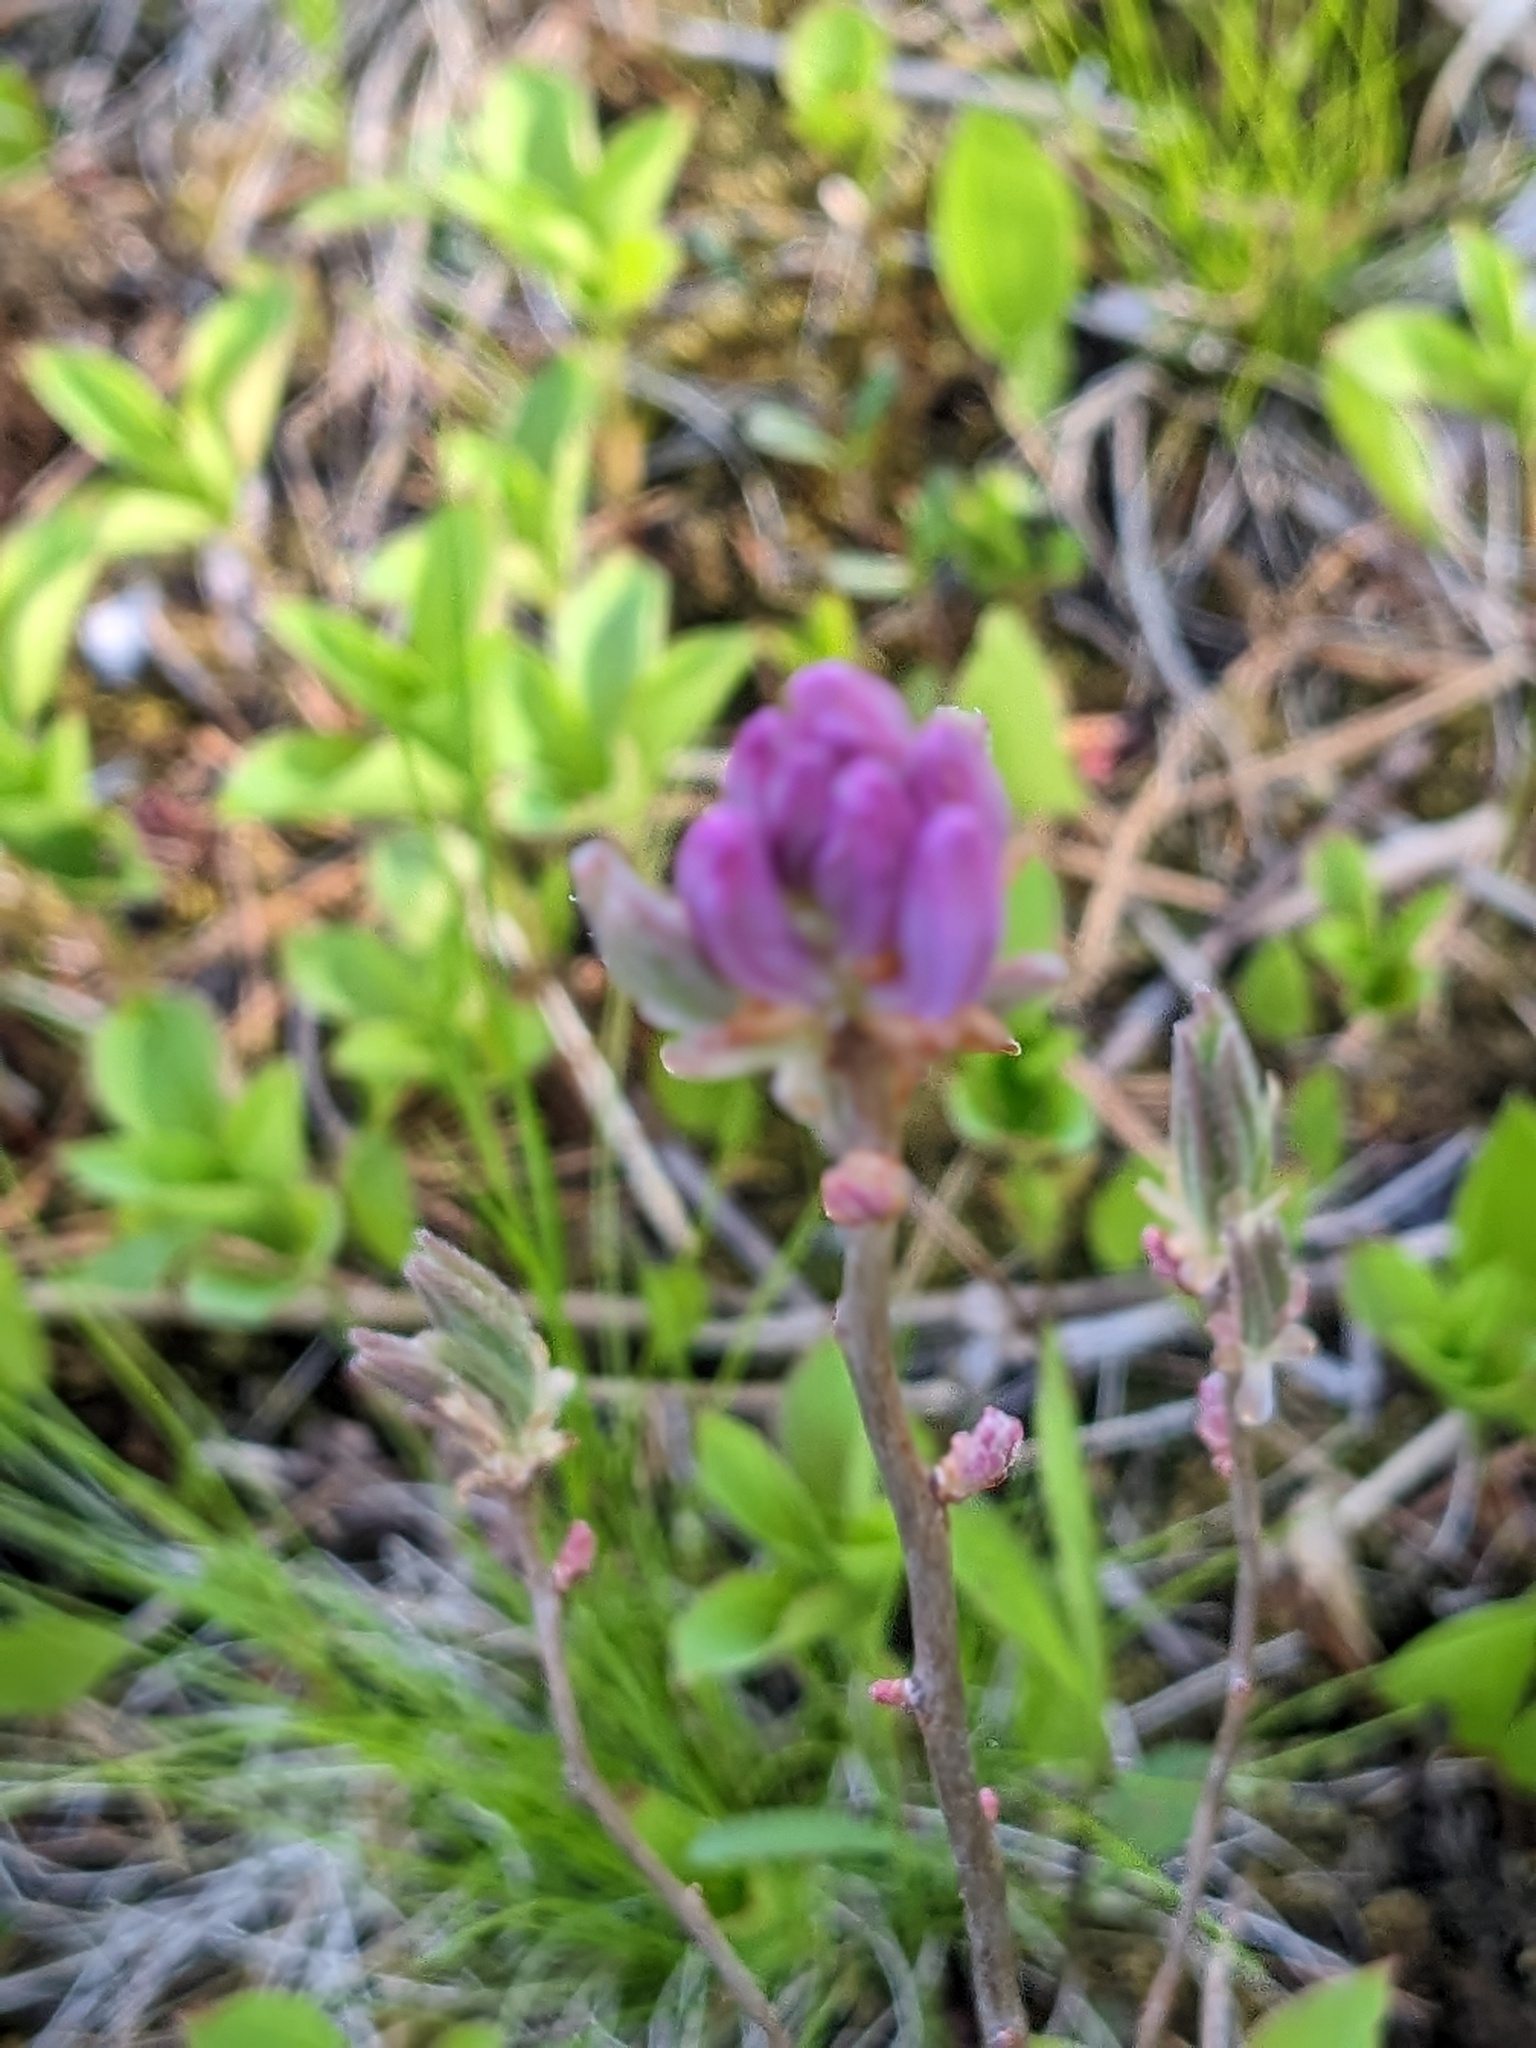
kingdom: Plantae
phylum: Tracheophyta
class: Magnoliopsida
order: Ericales
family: Ericaceae
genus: Rhododendron
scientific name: Rhododendron canadense
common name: Rhodora
